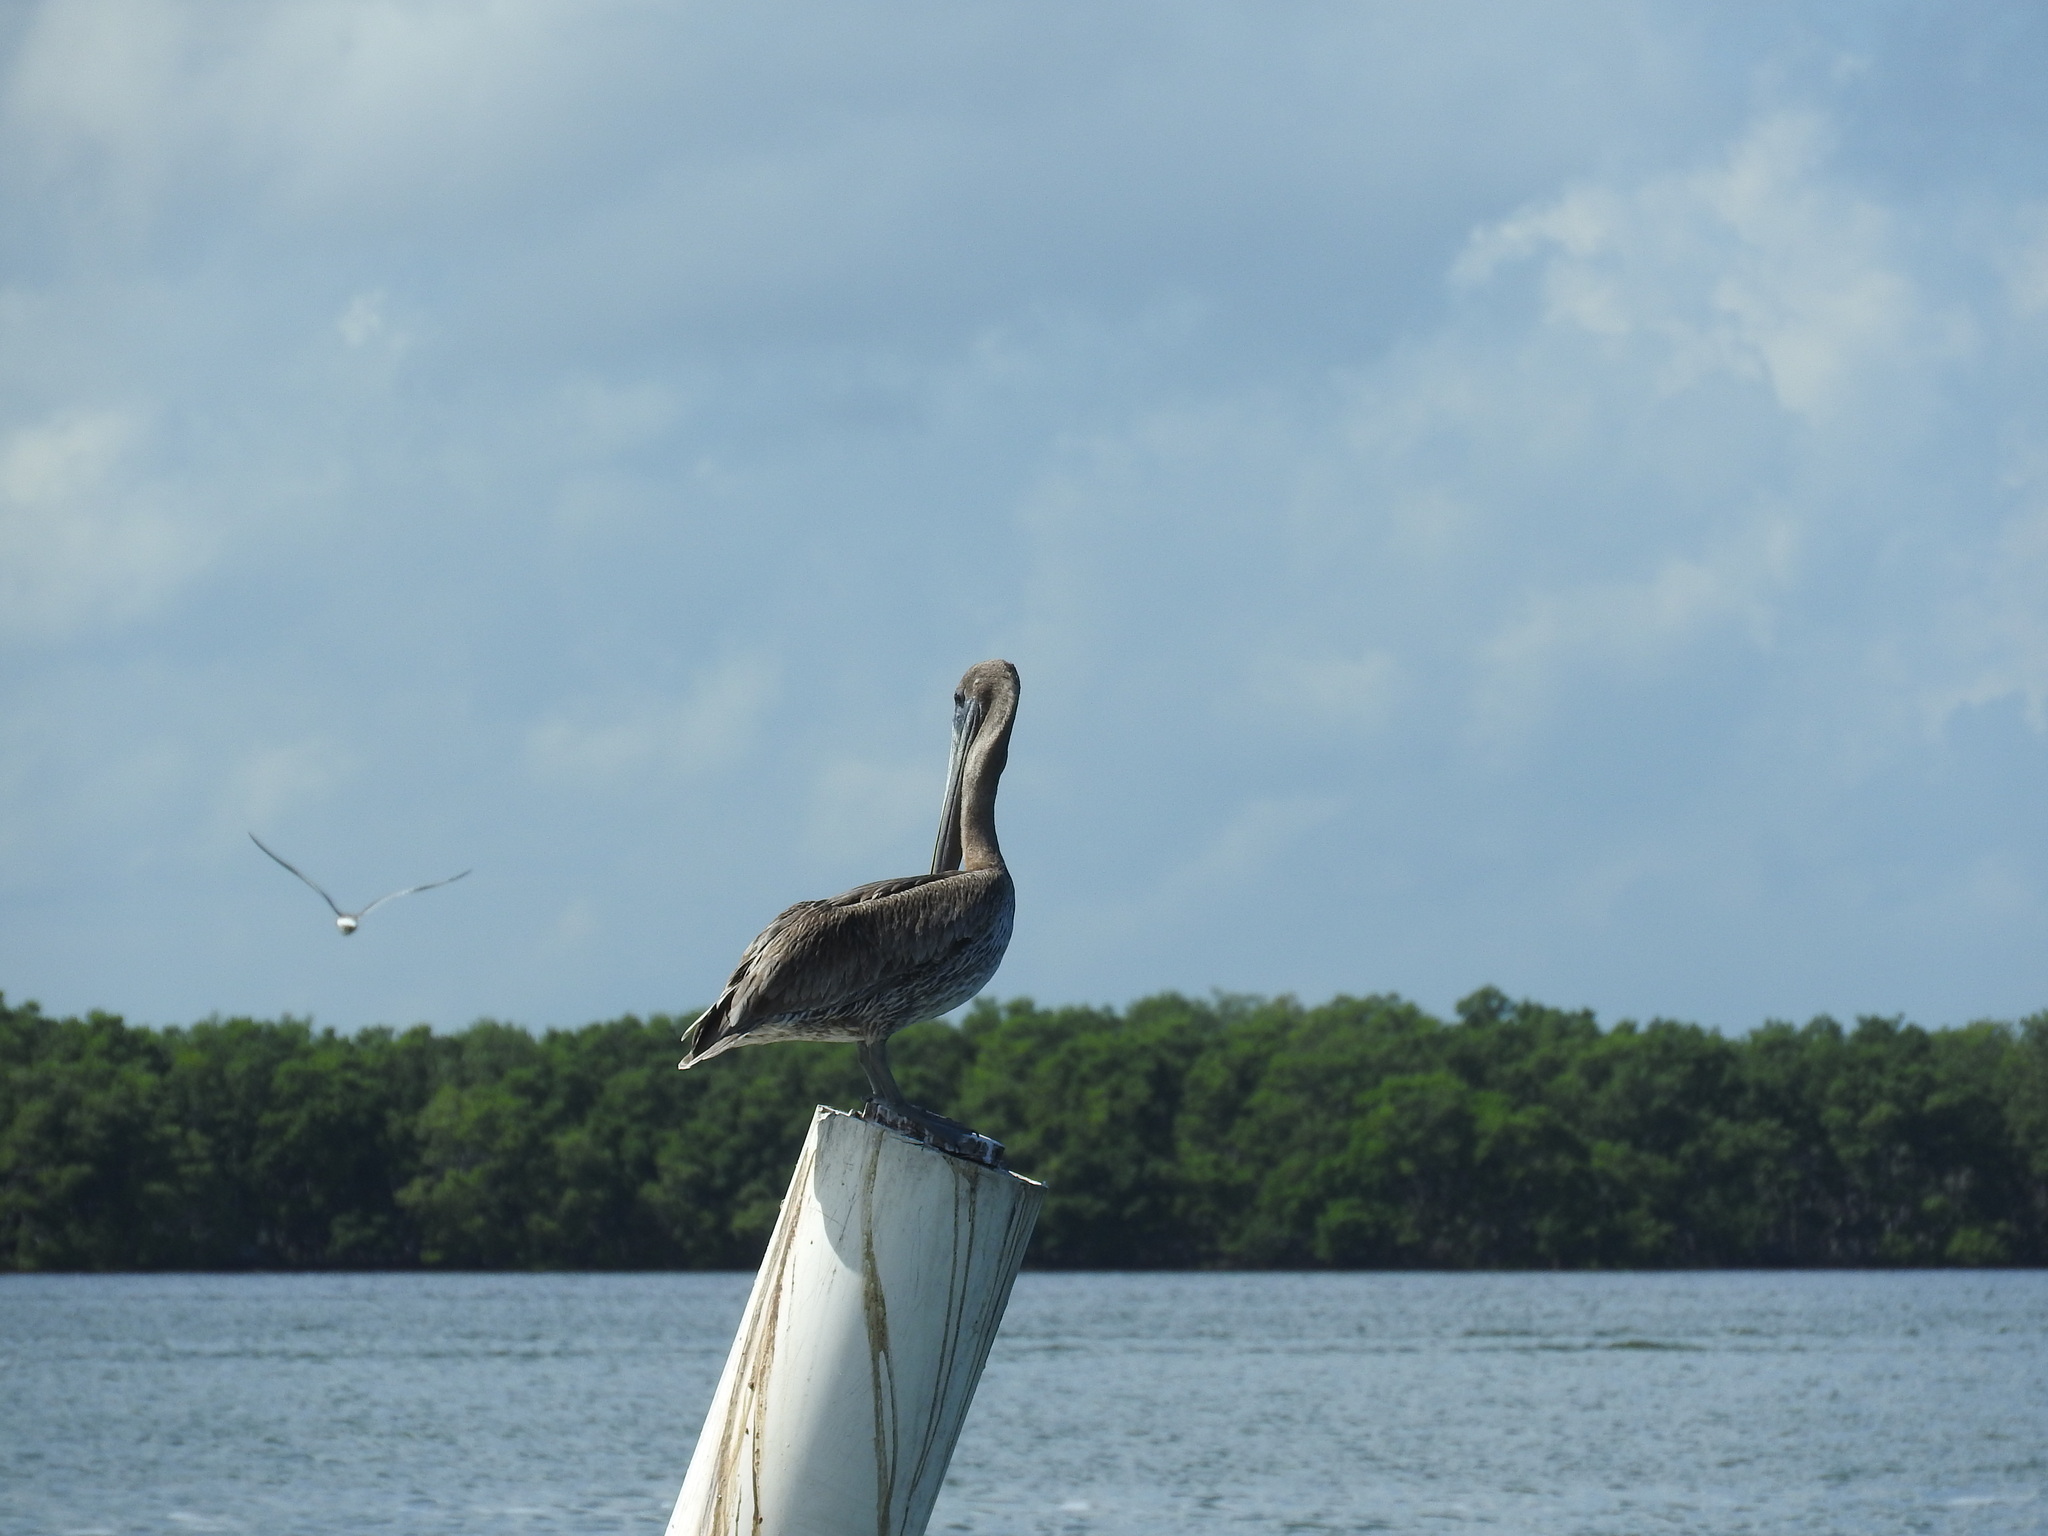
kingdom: Animalia
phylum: Chordata
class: Aves
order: Pelecaniformes
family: Pelecanidae
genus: Pelecanus
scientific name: Pelecanus occidentalis
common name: Brown pelican
